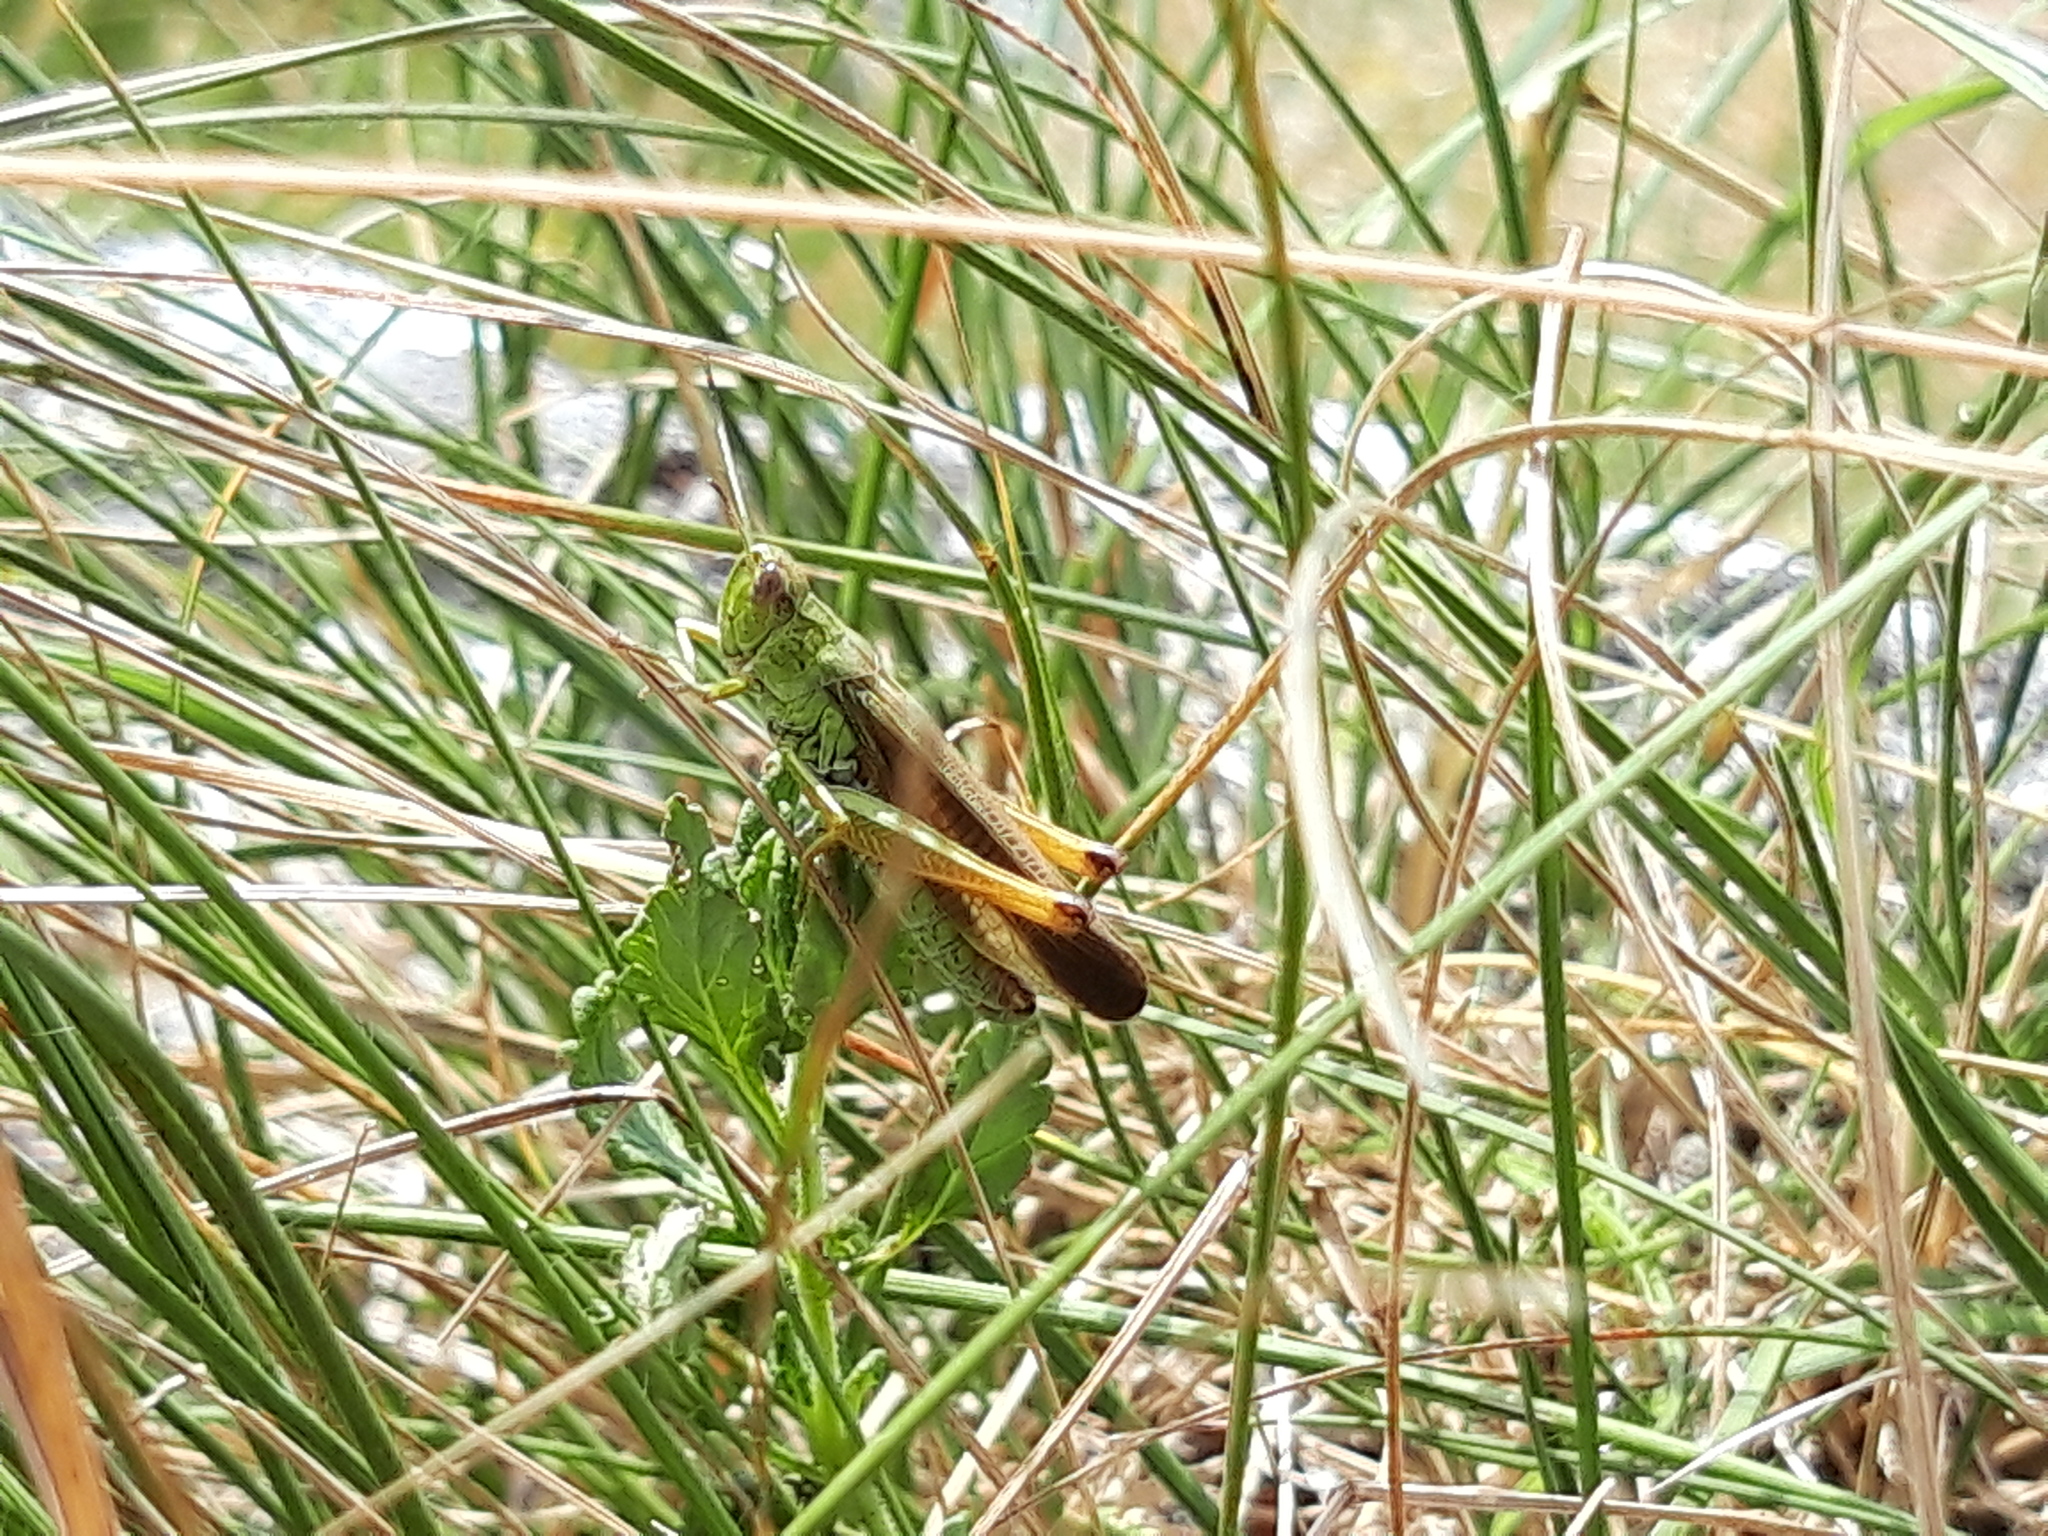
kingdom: Animalia
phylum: Arthropoda
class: Insecta
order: Orthoptera
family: Acrididae
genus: Stauroderus
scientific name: Stauroderus scalaris
